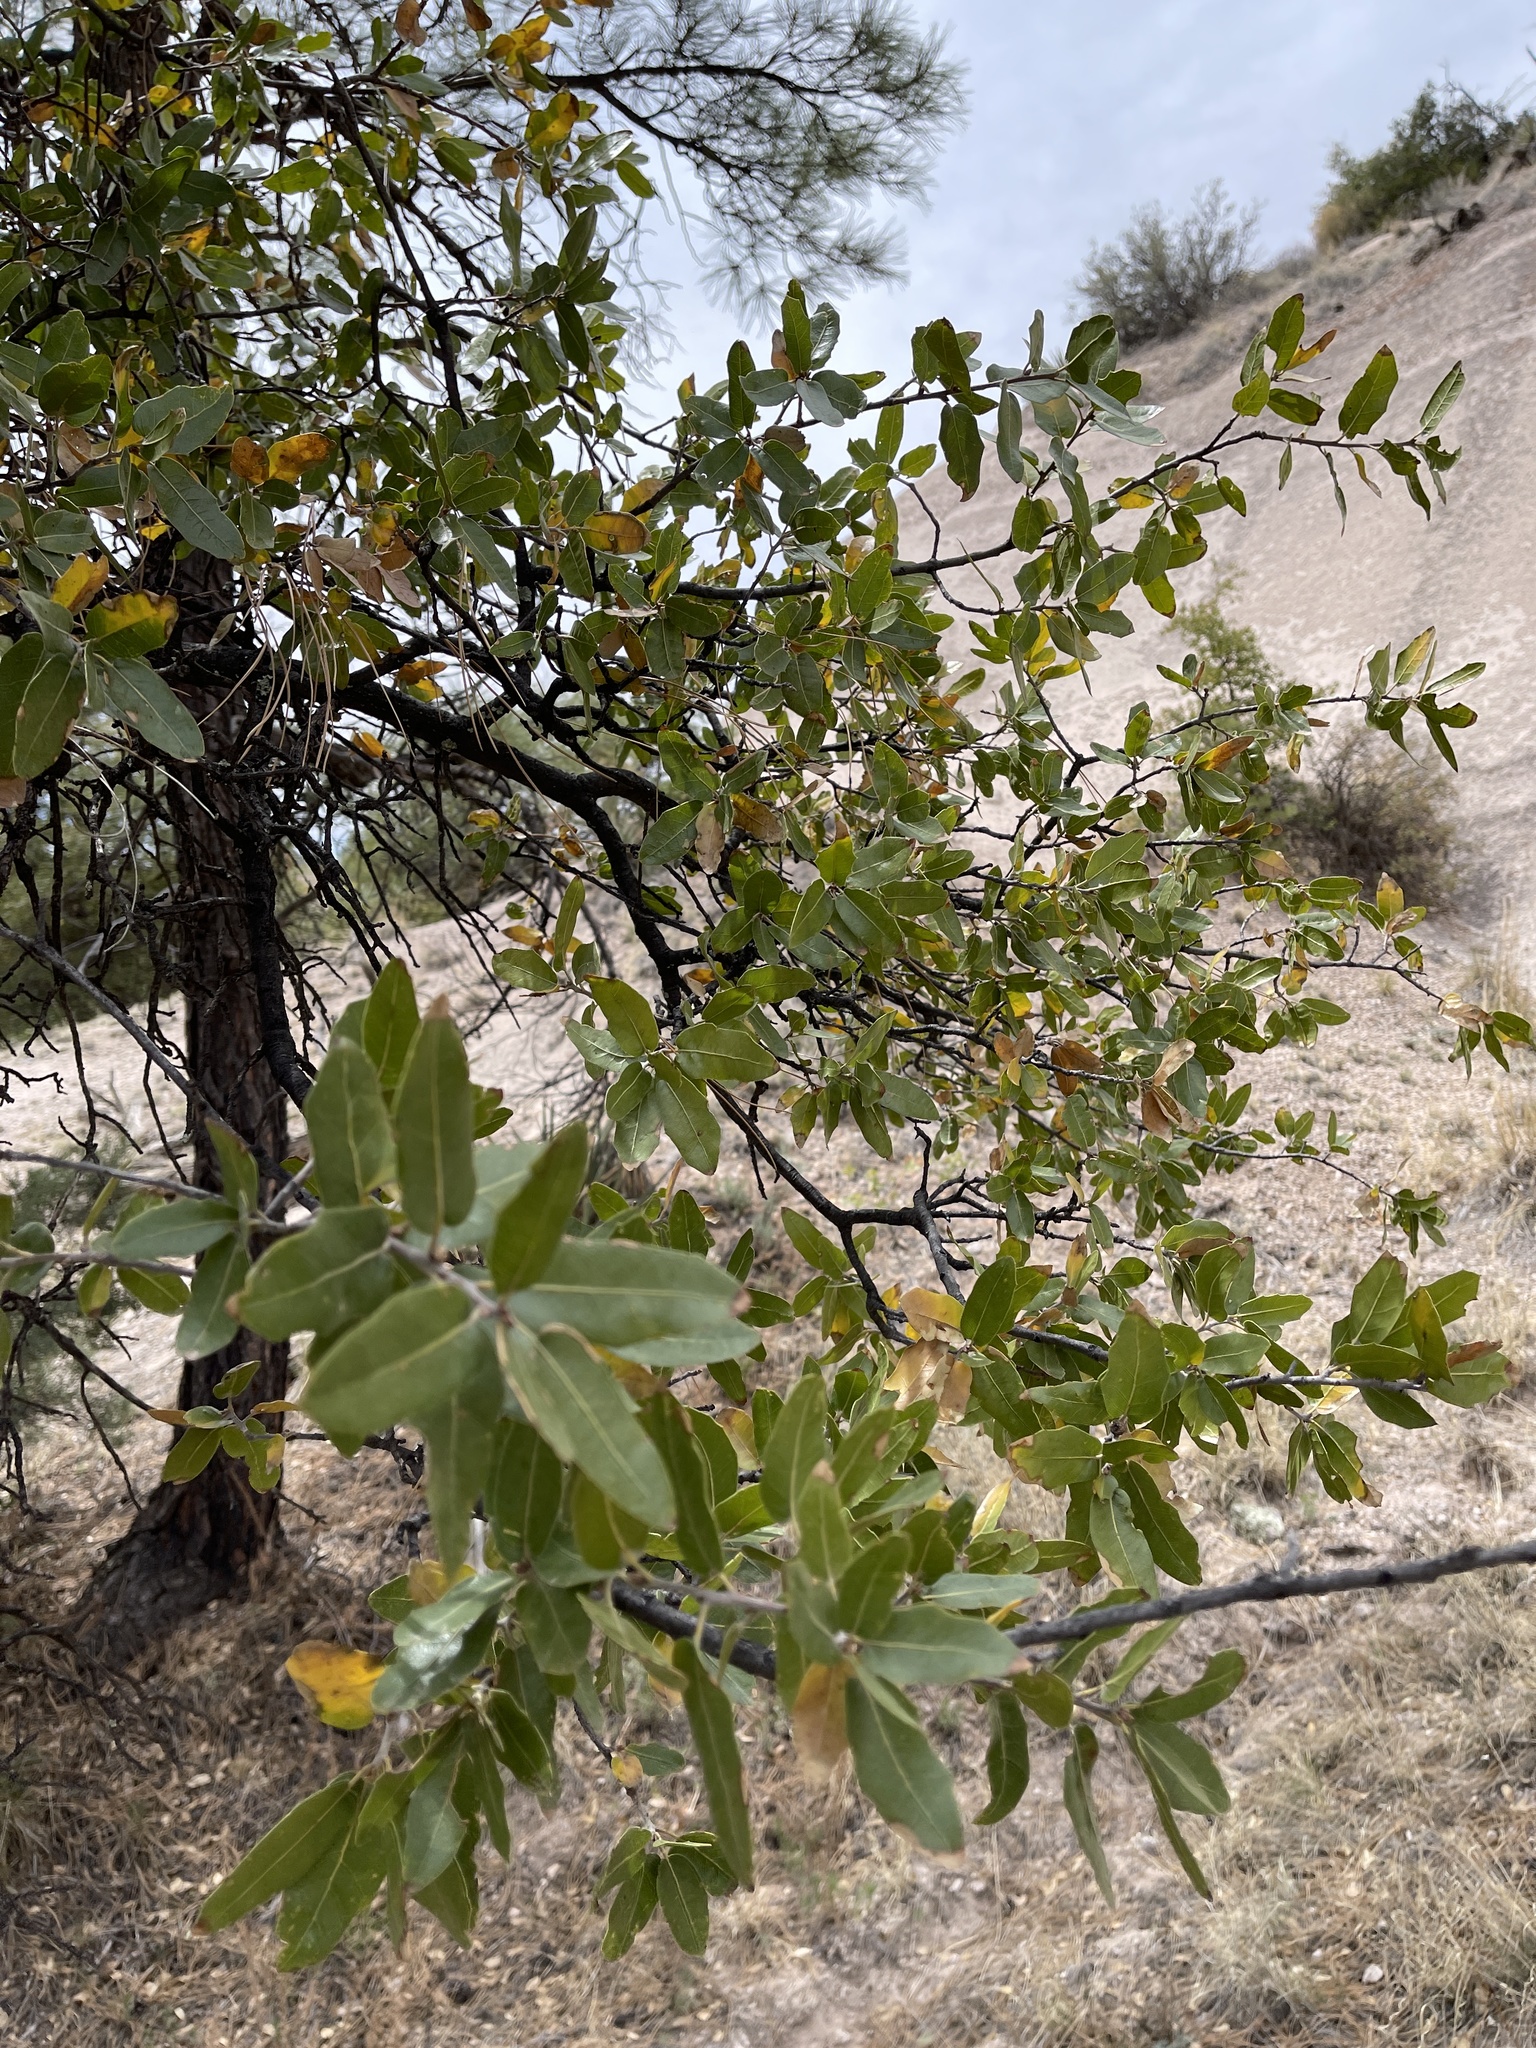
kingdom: Plantae
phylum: Tracheophyta
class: Magnoliopsida
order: Fagales
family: Fagaceae
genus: Quercus
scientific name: Quercus emoryi
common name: Emory oak
